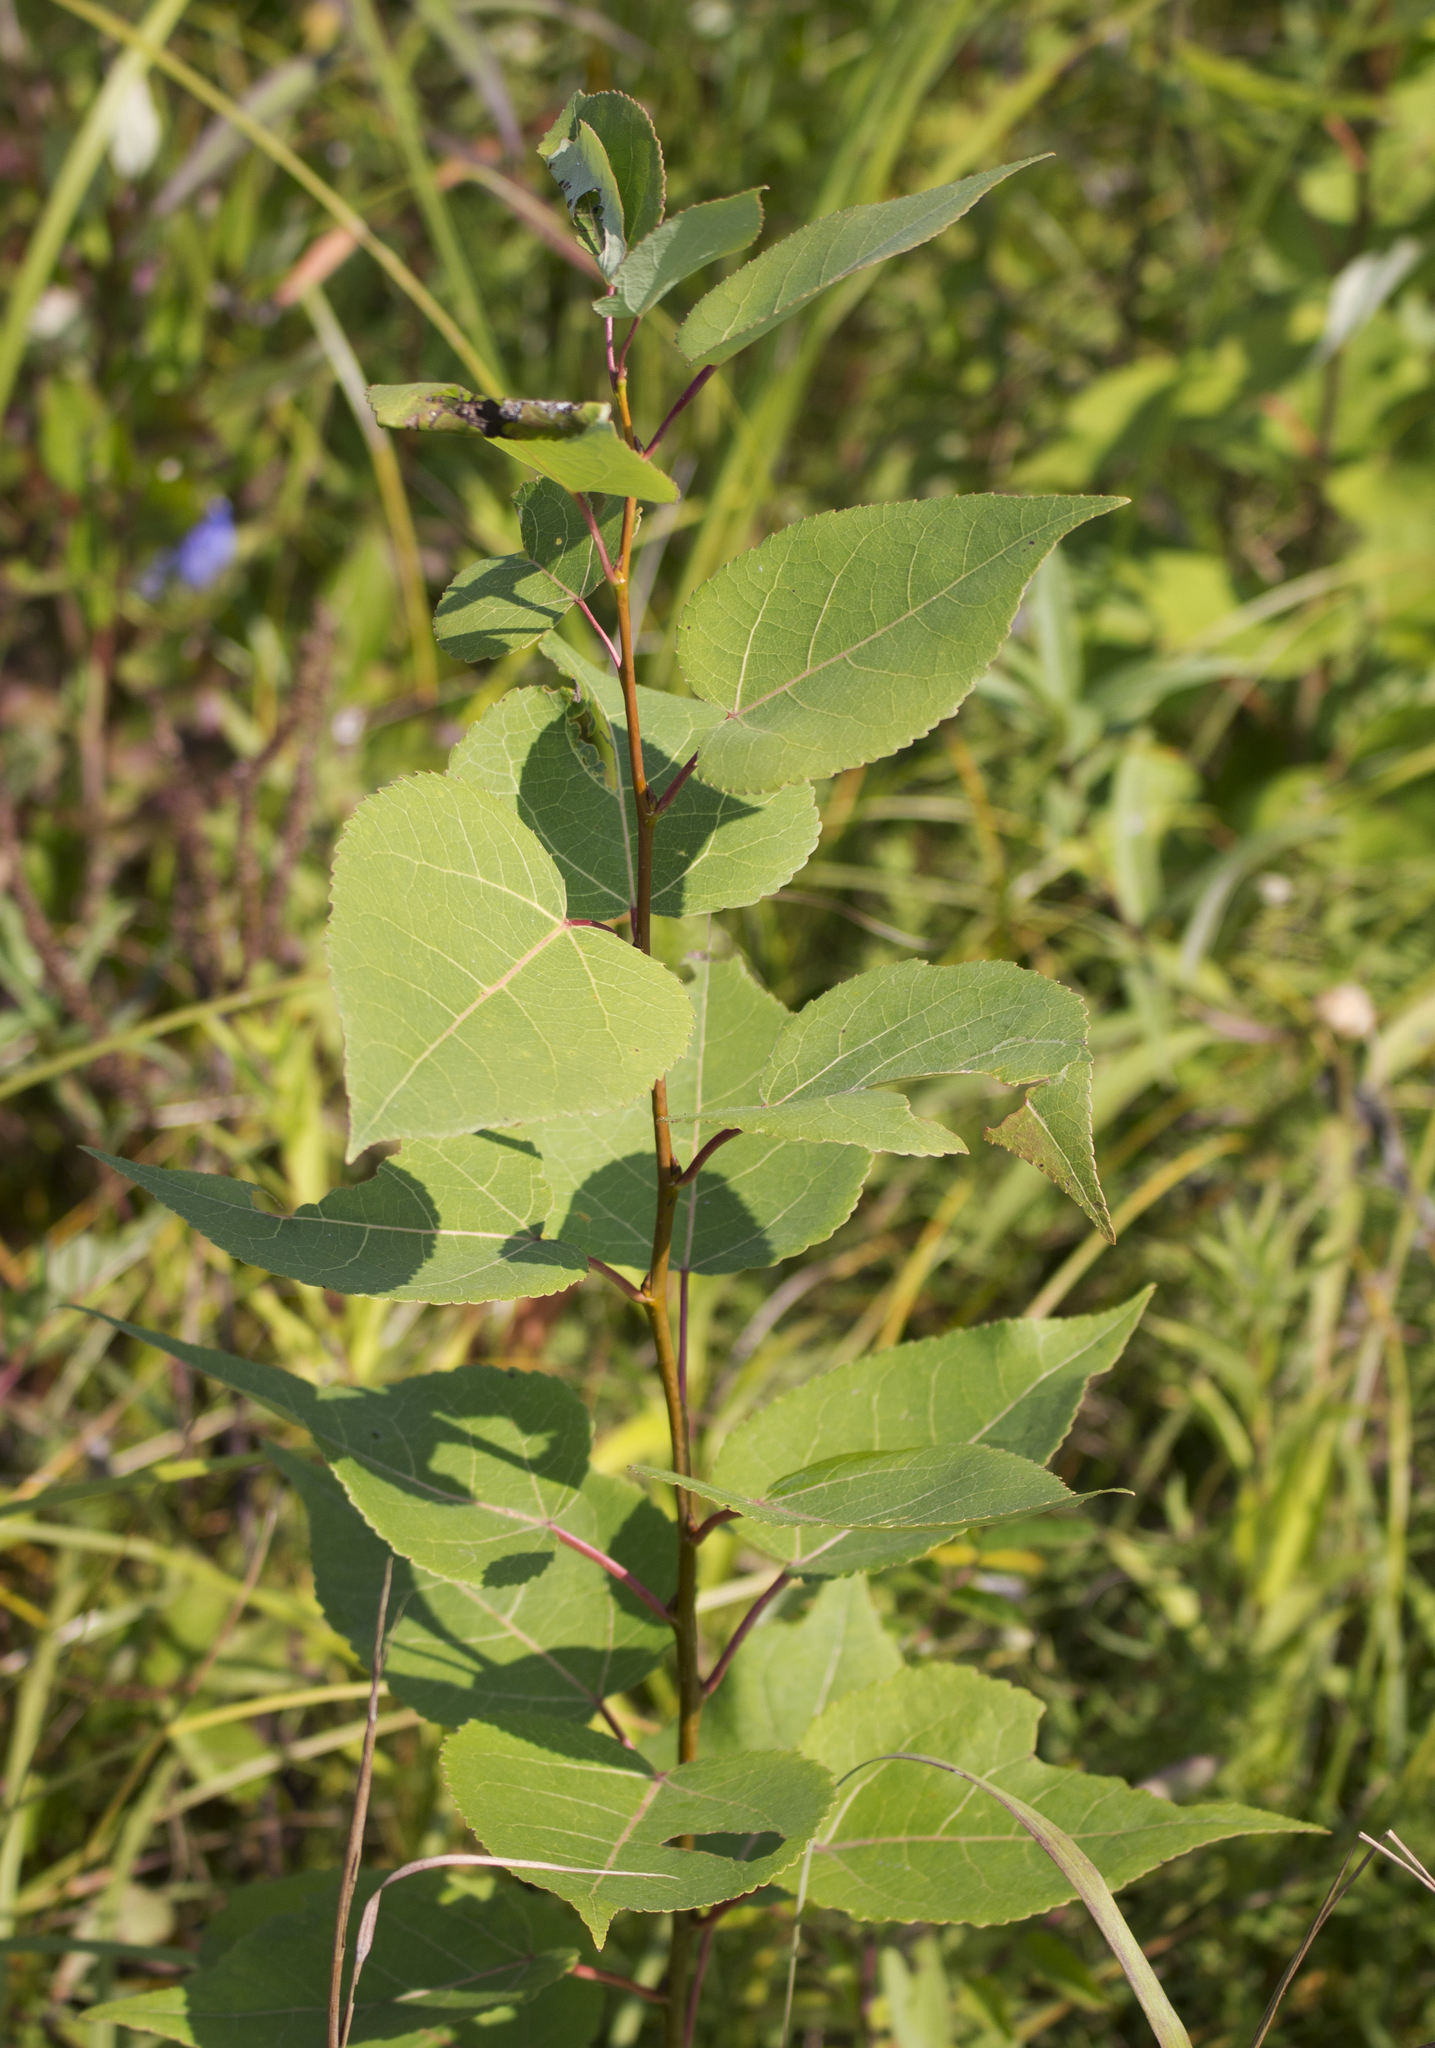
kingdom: Plantae
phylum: Tracheophyta
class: Magnoliopsida
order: Malpighiales
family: Salicaceae
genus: Populus
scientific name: Populus tremuloides
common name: Quaking aspen
